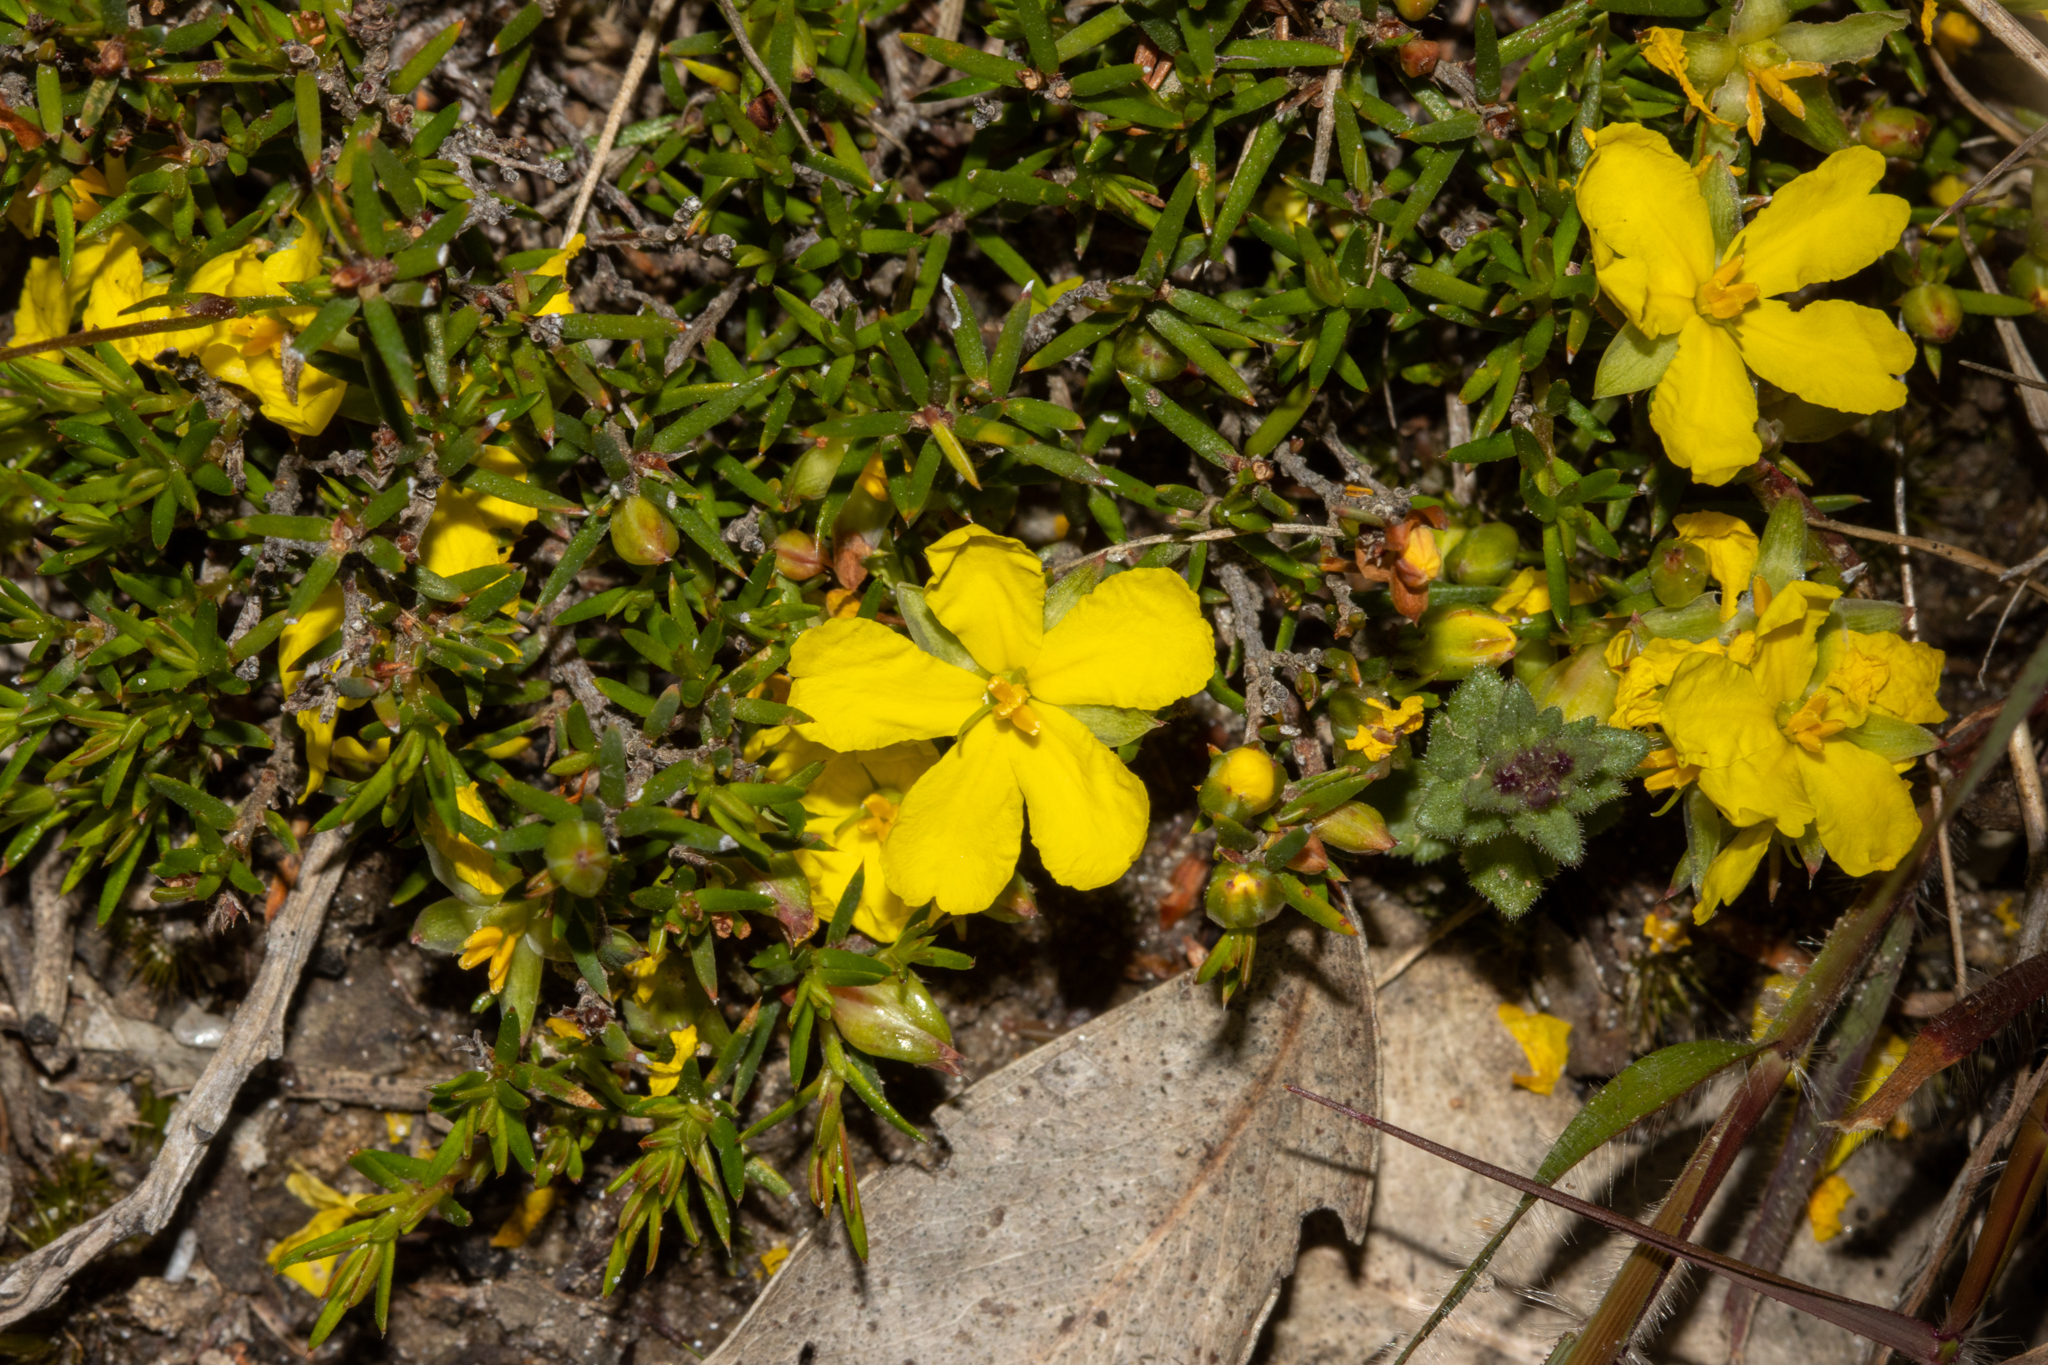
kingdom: Plantae
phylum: Tracheophyta
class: Magnoliopsida
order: Dilleniales
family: Dilleniaceae
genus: Hibbertia
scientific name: Hibbertia exutiacies
